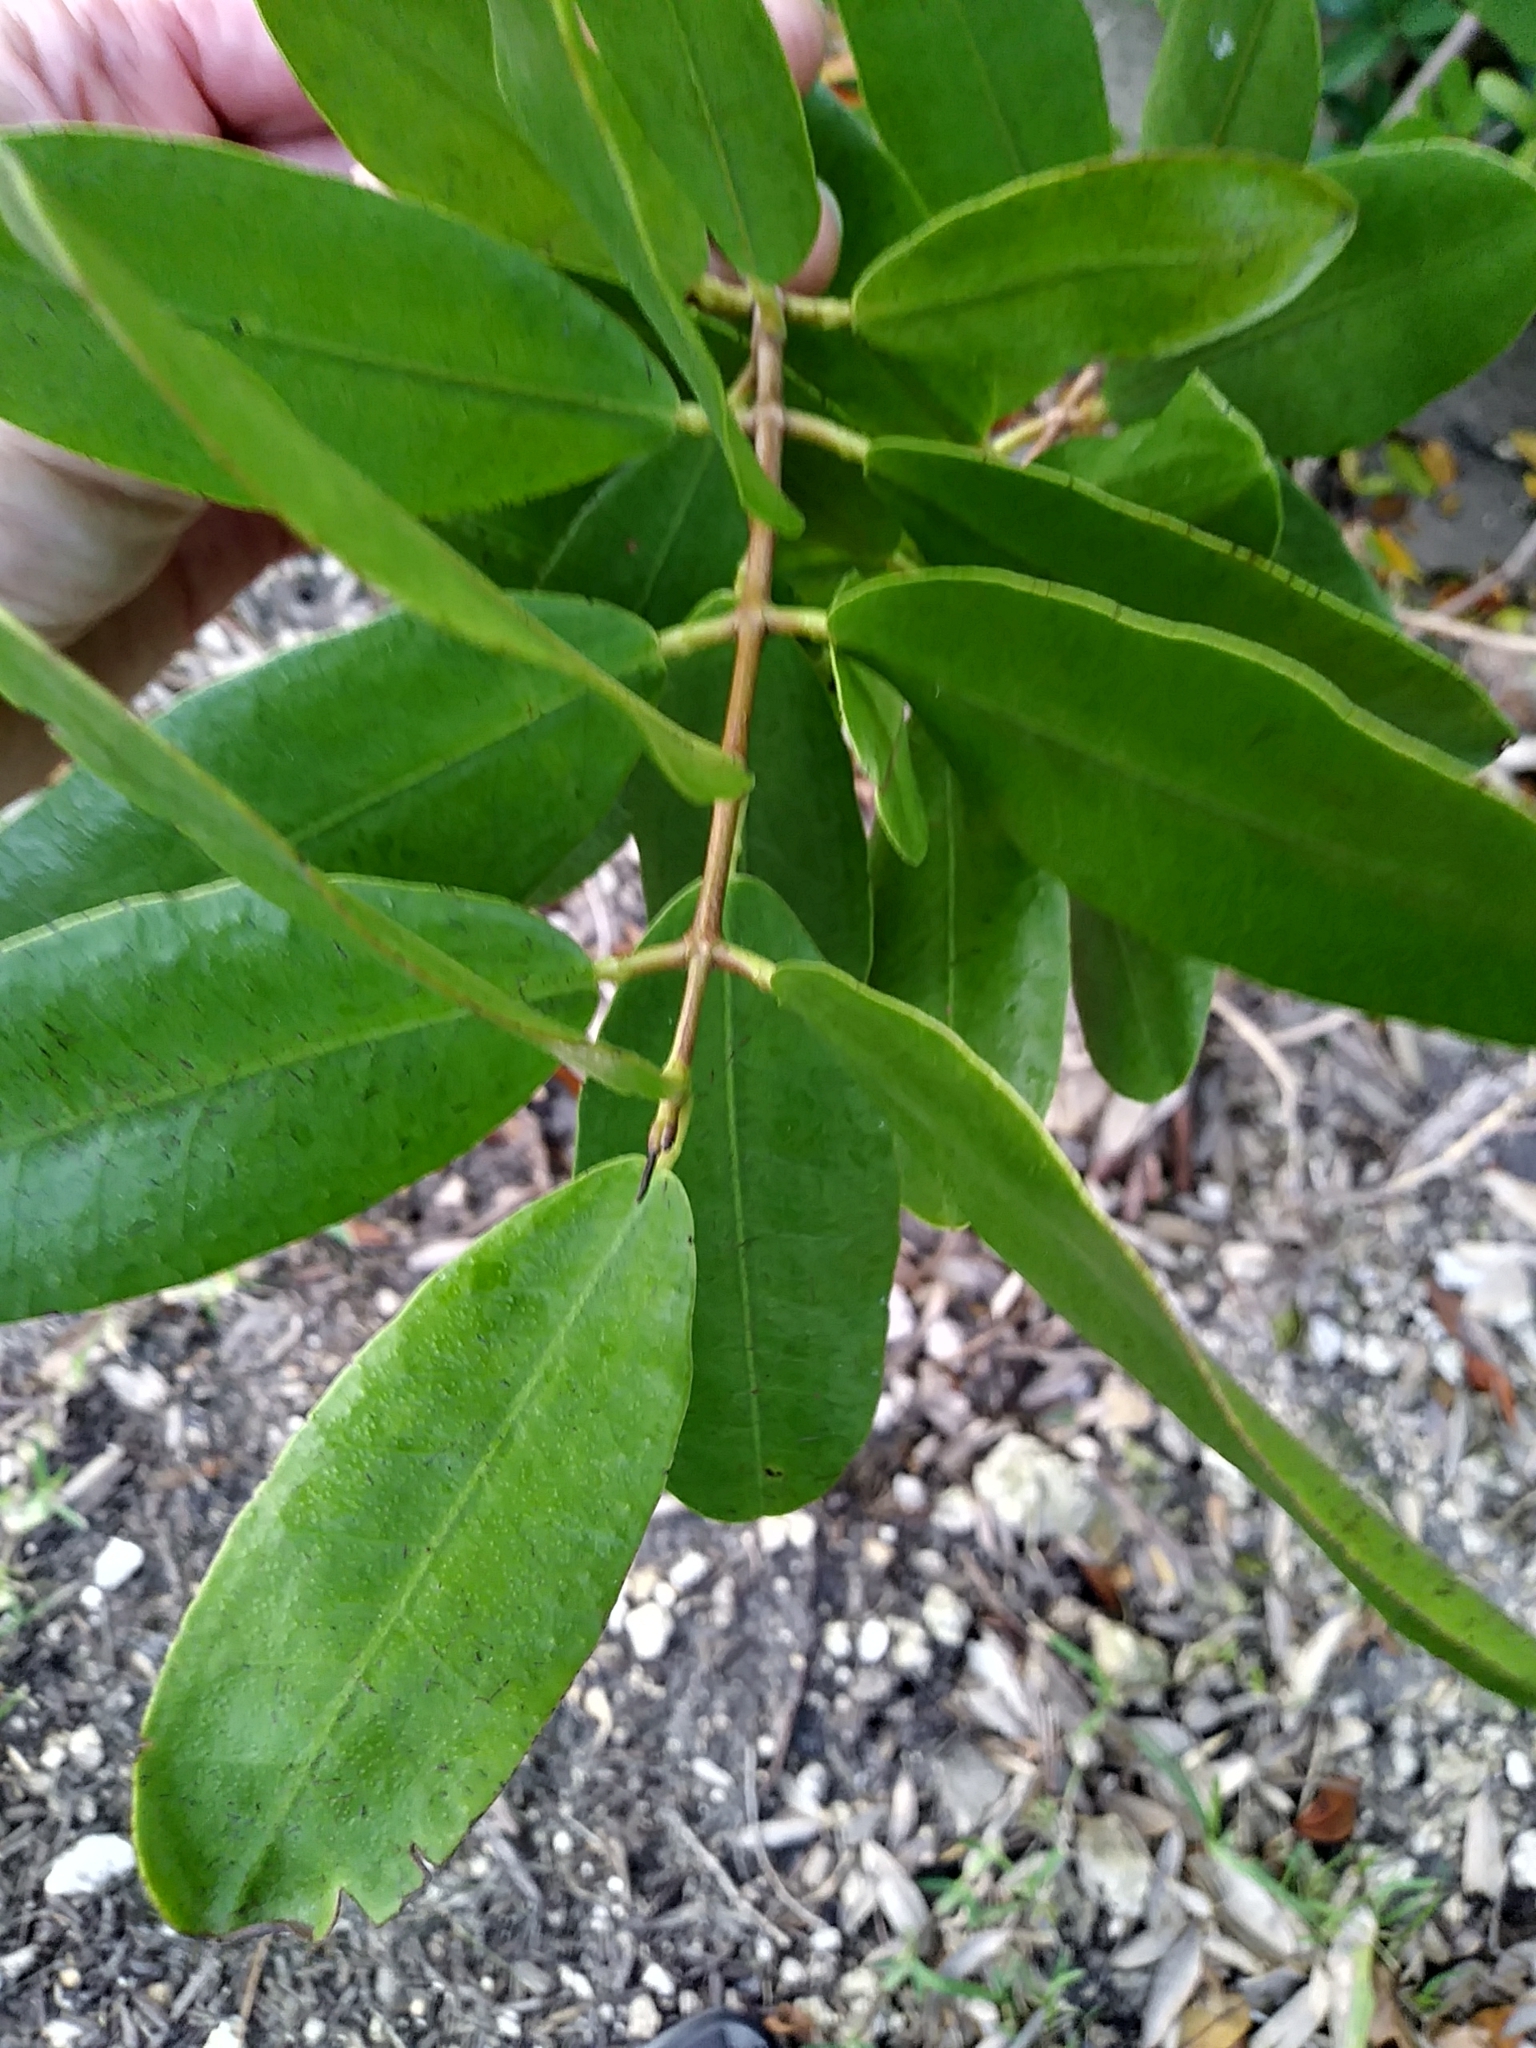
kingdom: Plantae
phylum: Tracheophyta
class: Magnoliopsida
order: Myrtales
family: Combretaceae
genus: Laguncularia
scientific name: Laguncularia racemosa
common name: White mangrove
